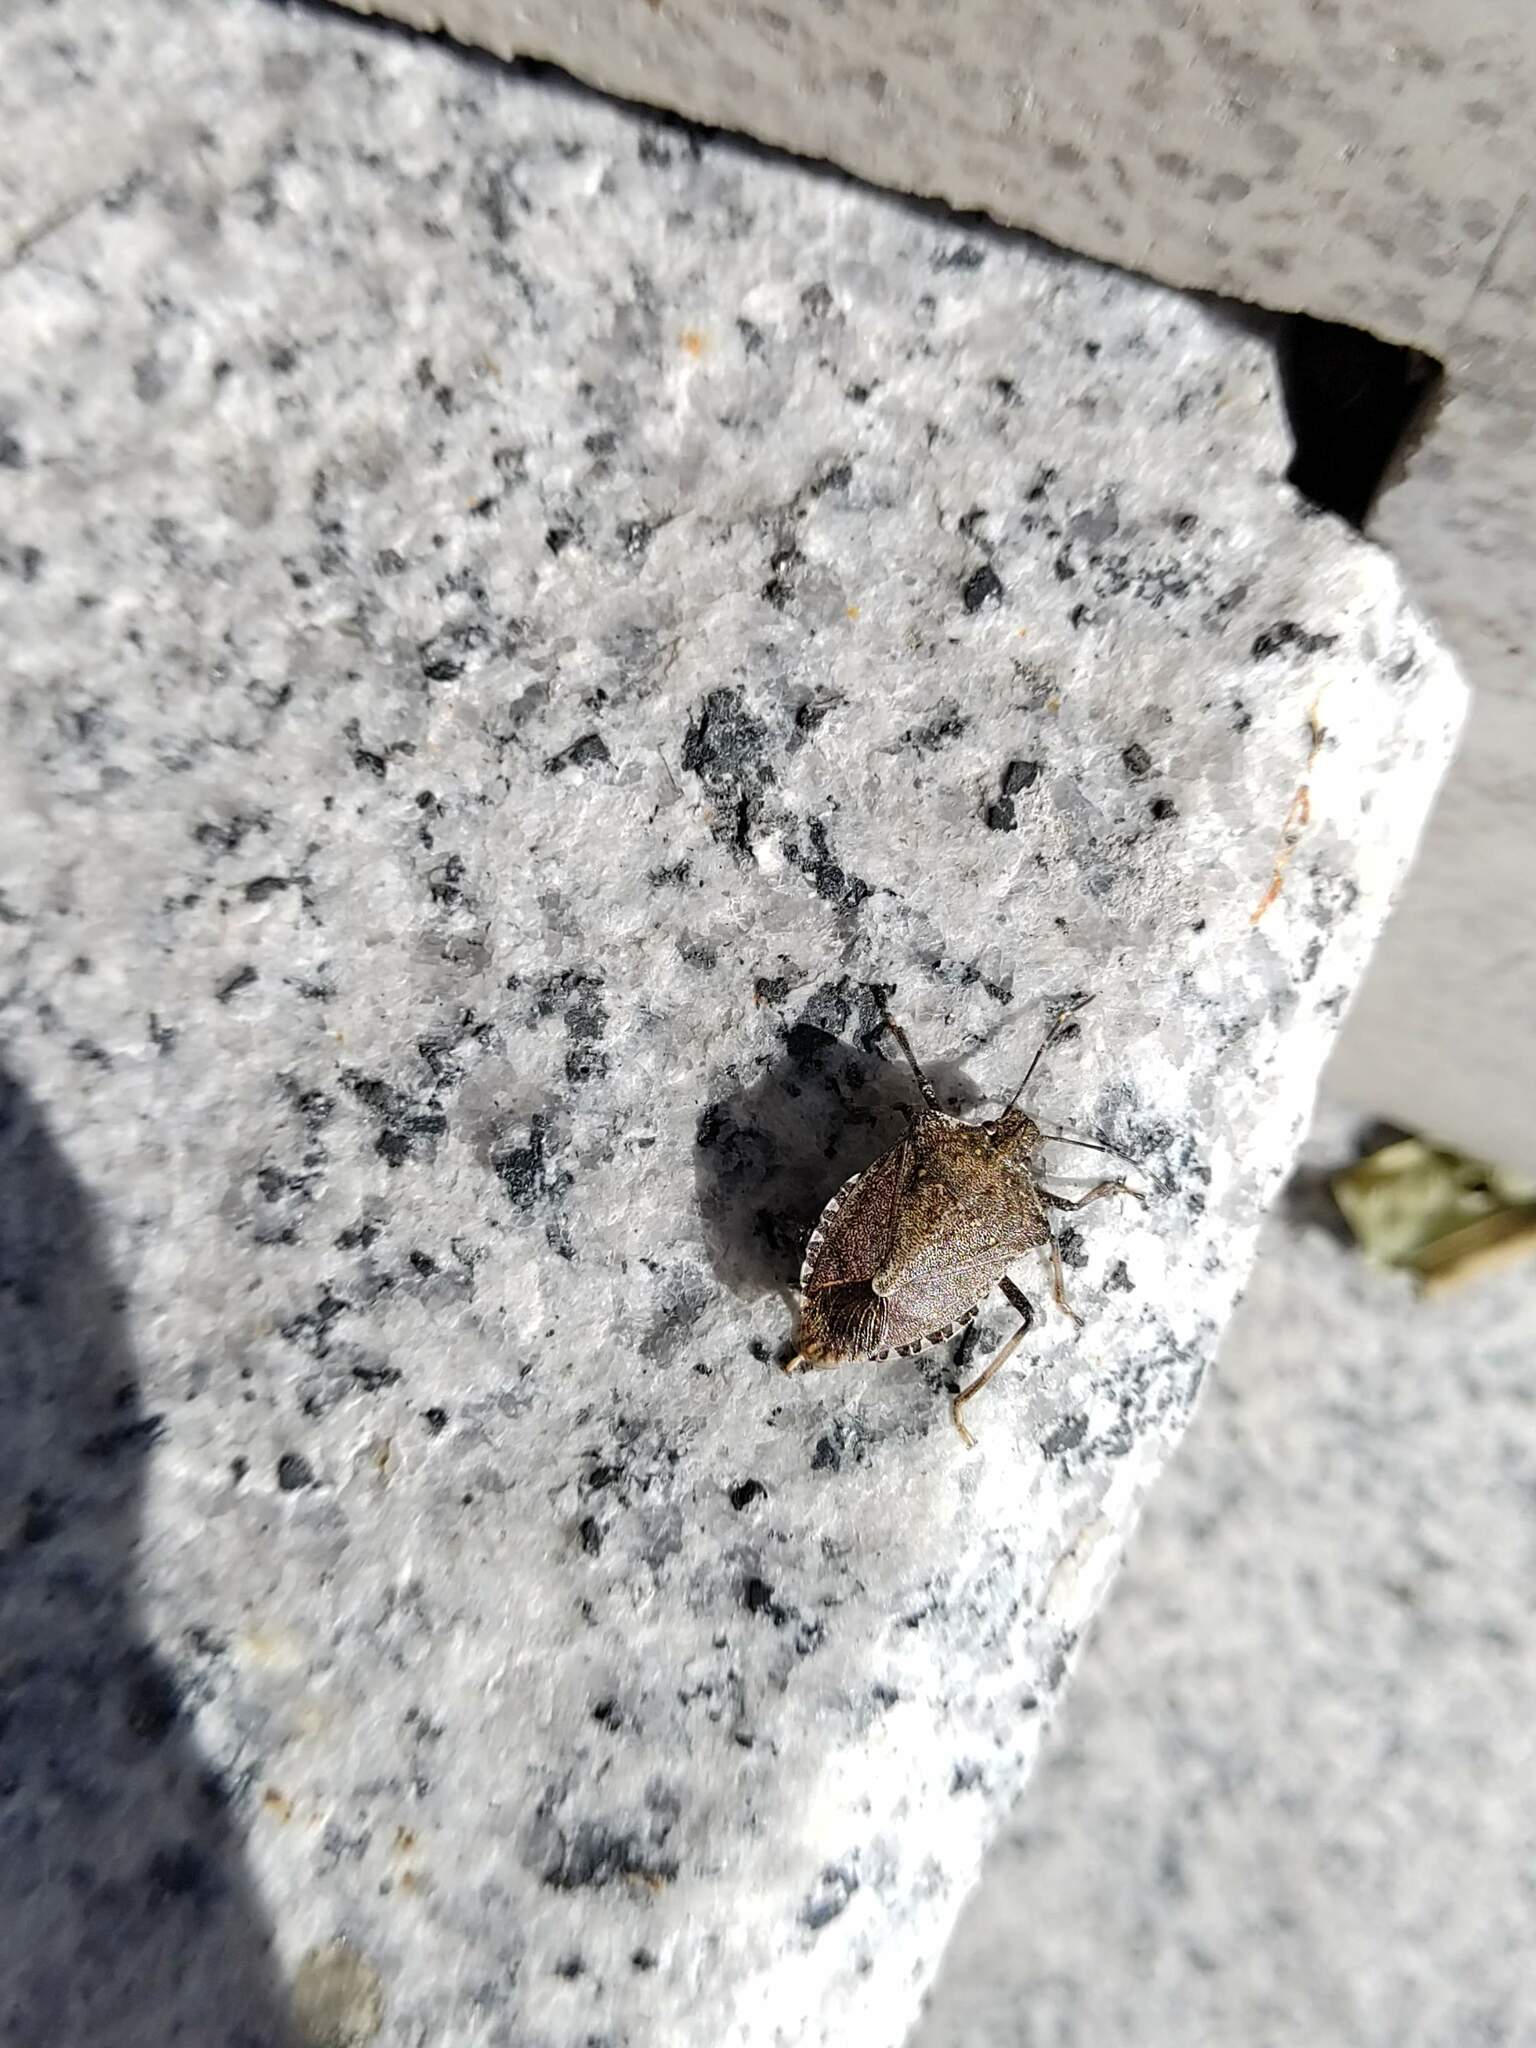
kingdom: Animalia
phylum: Arthropoda
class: Insecta
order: Hemiptera
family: Pentatomidae
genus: Halyomorpha
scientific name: Halyomorpha halys
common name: Brown marmorated stink bug
